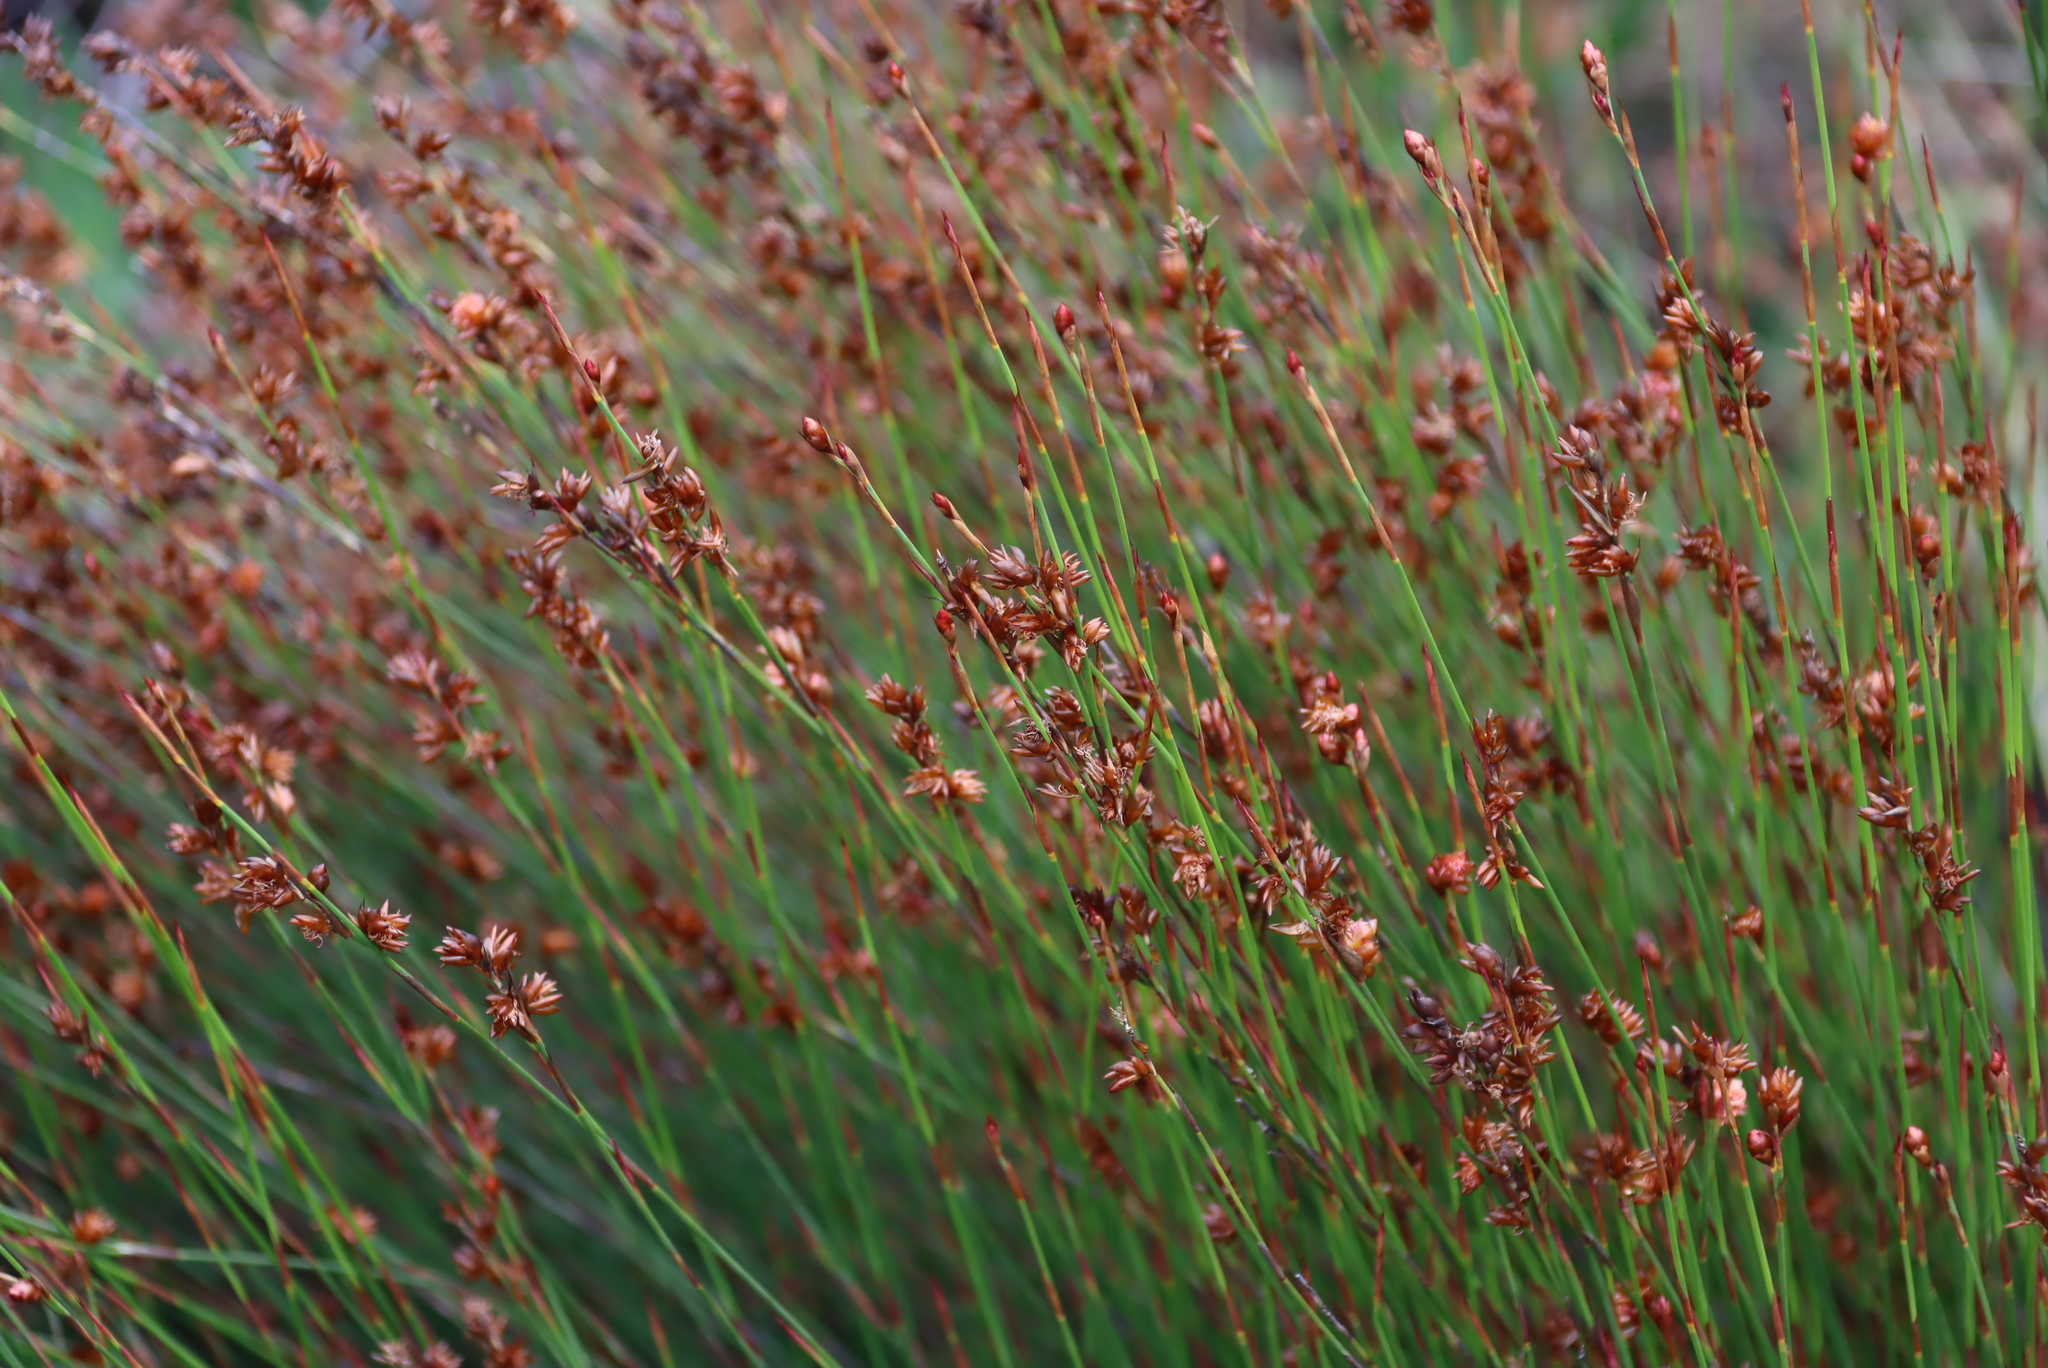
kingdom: Plantae
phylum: Tracheophyta
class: Liliopsida
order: Poales
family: Restionaceae
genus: Mastersiella
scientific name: Mastersiella purpurea
